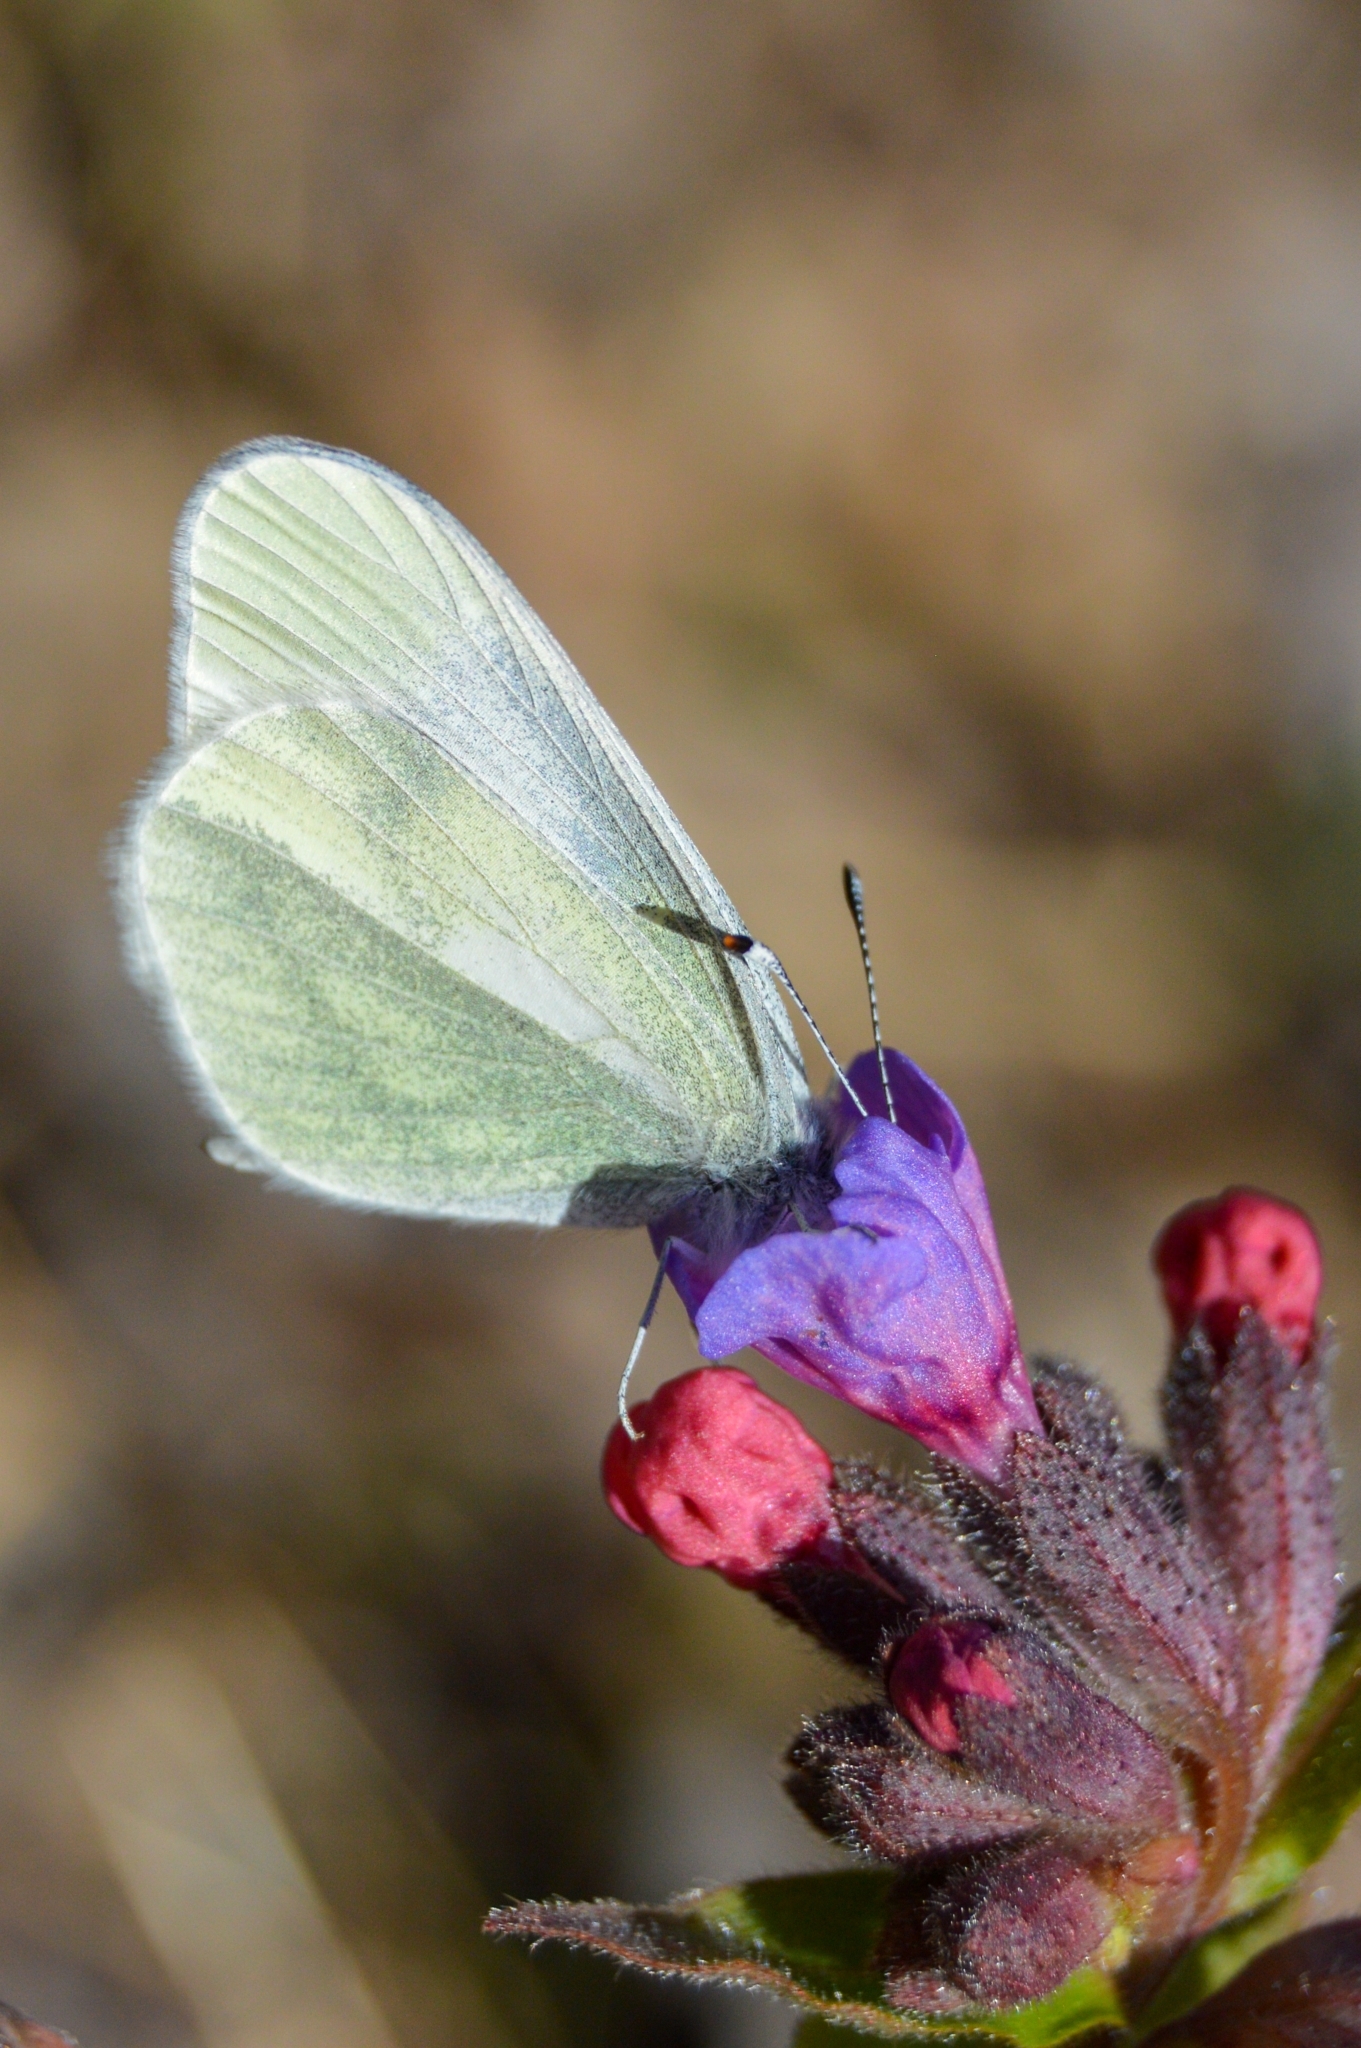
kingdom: Animalia
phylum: Arthropoda
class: Insecta
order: Lepidoptera
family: Pieridae
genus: Leptidea
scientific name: Leptidea
